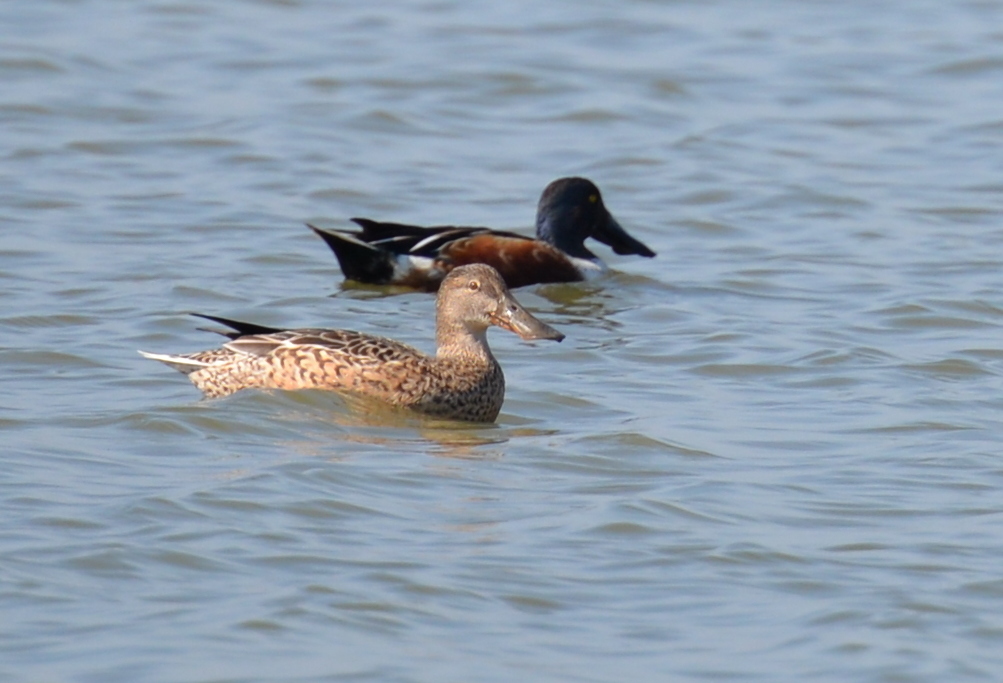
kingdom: Animalia
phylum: Chordata
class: Aves
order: Anseriformes
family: Anatidae
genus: Spatula
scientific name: Spatula clypeata
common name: Northern shoveler
